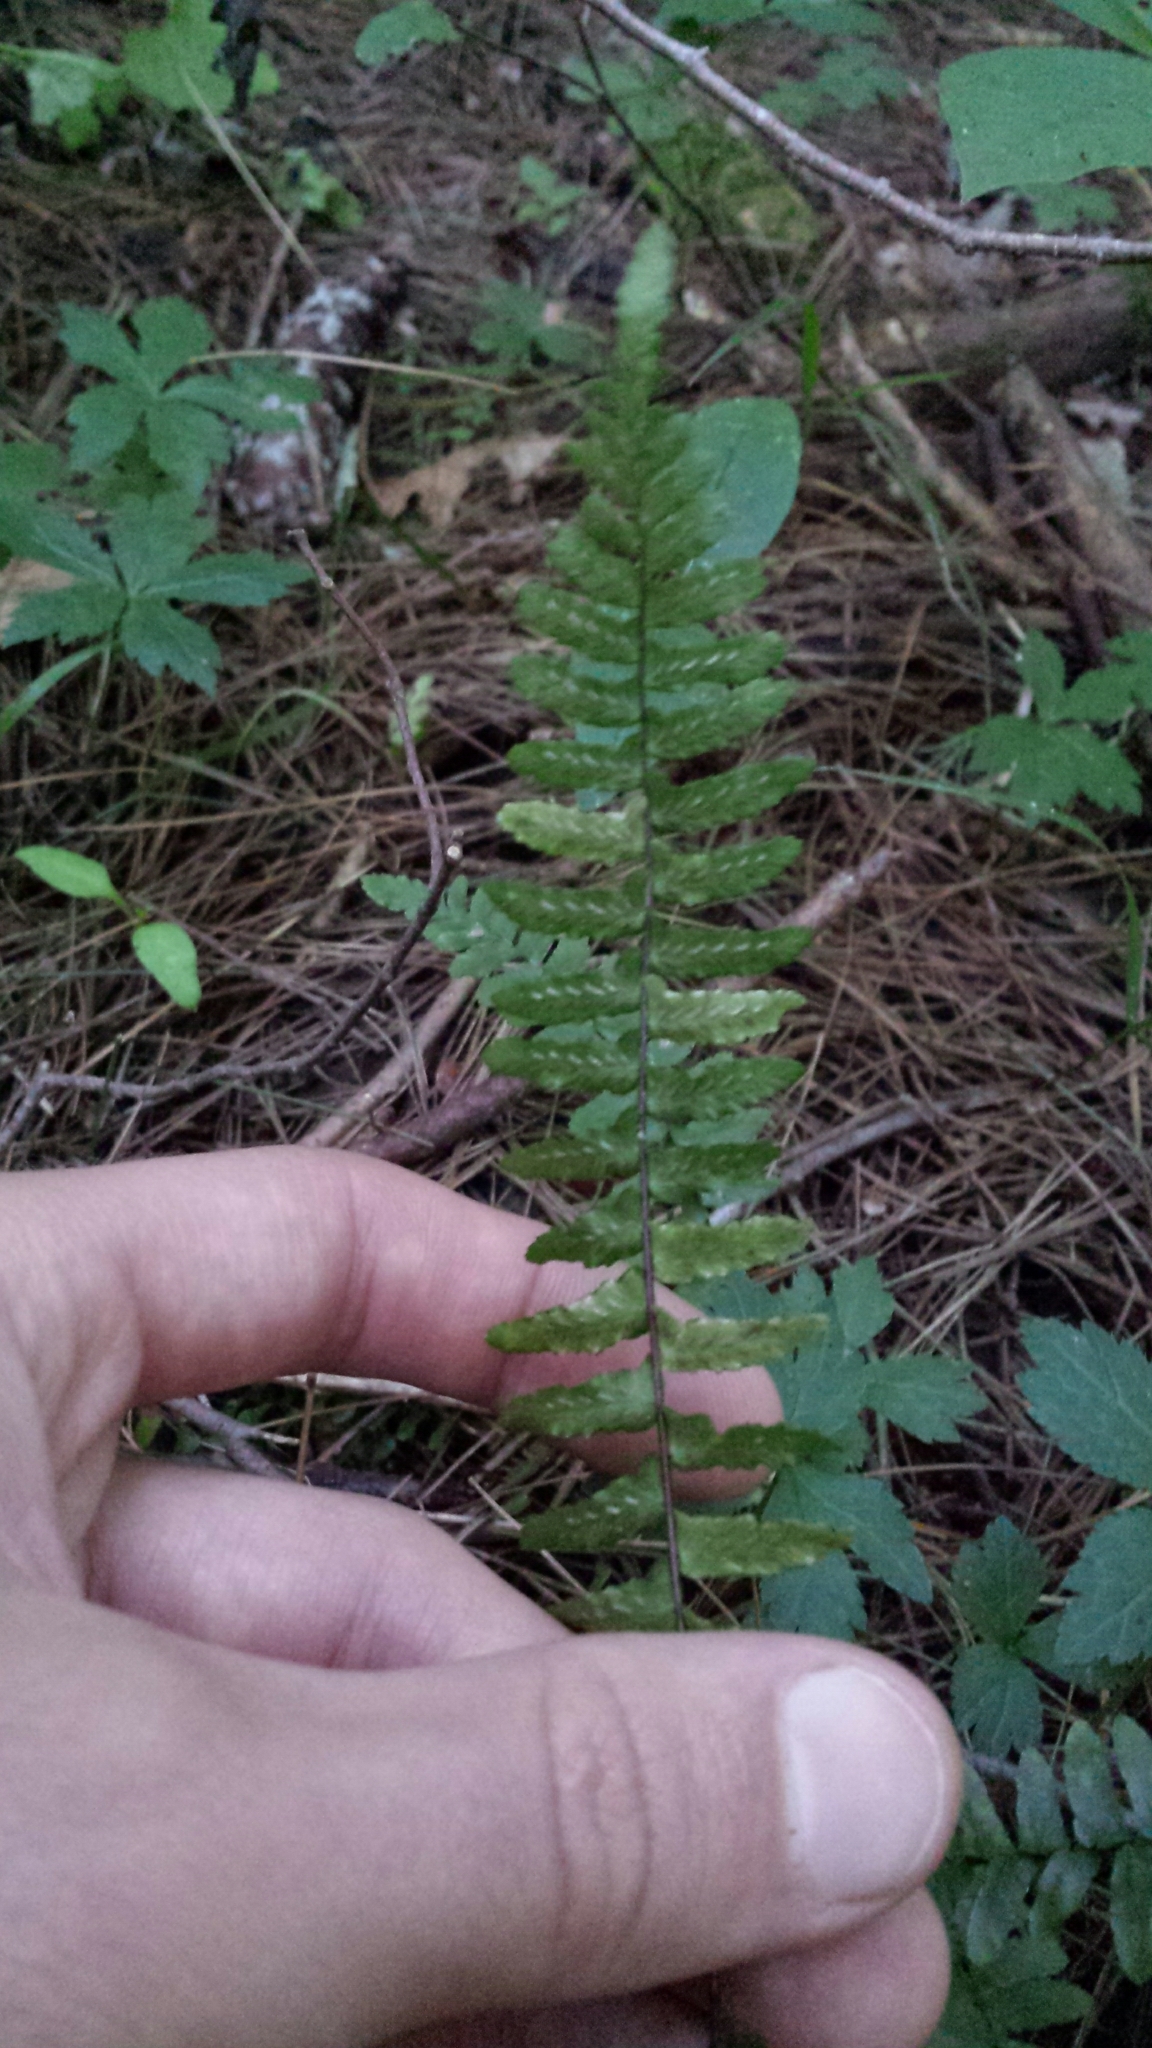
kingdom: Plantae
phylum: Tracheophyta
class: Polypodiopsida
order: Polypodiales
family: Aspleniaceae
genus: Asplenium
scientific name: Asplenium platyneuron
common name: Ebony spleenwort
